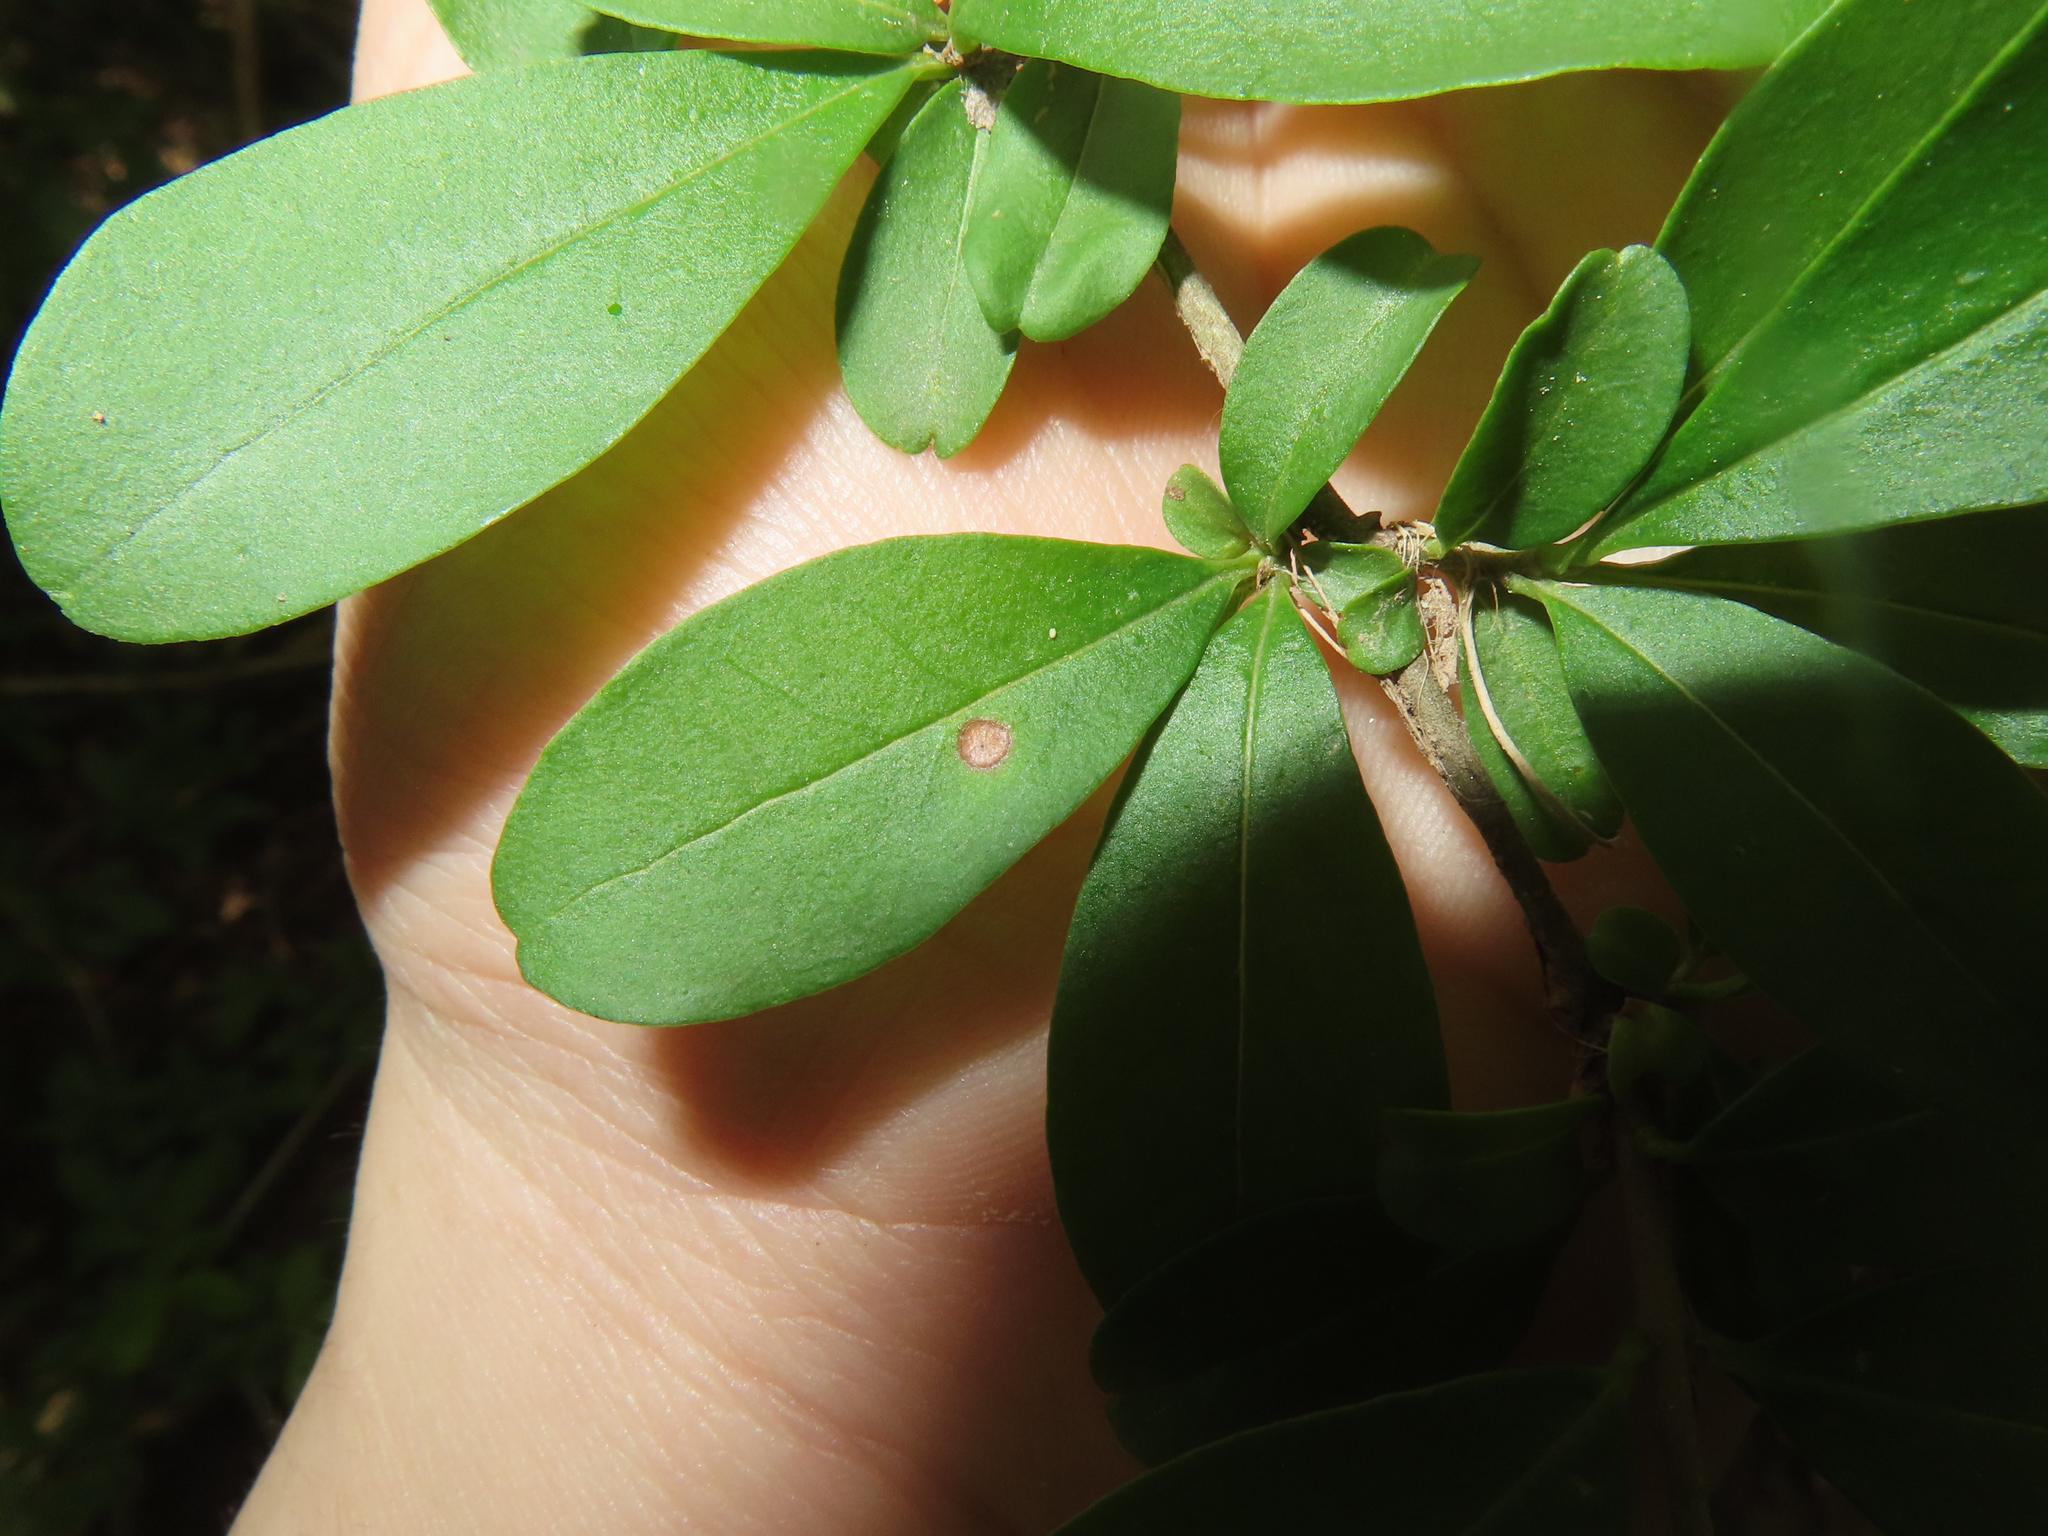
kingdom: Plantae
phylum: Tracheophyta
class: Magnoliopsida
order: Lamiales
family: Oleaceae
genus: Ligustrum
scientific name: Ligustrum obtusifolium
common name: Border privet
